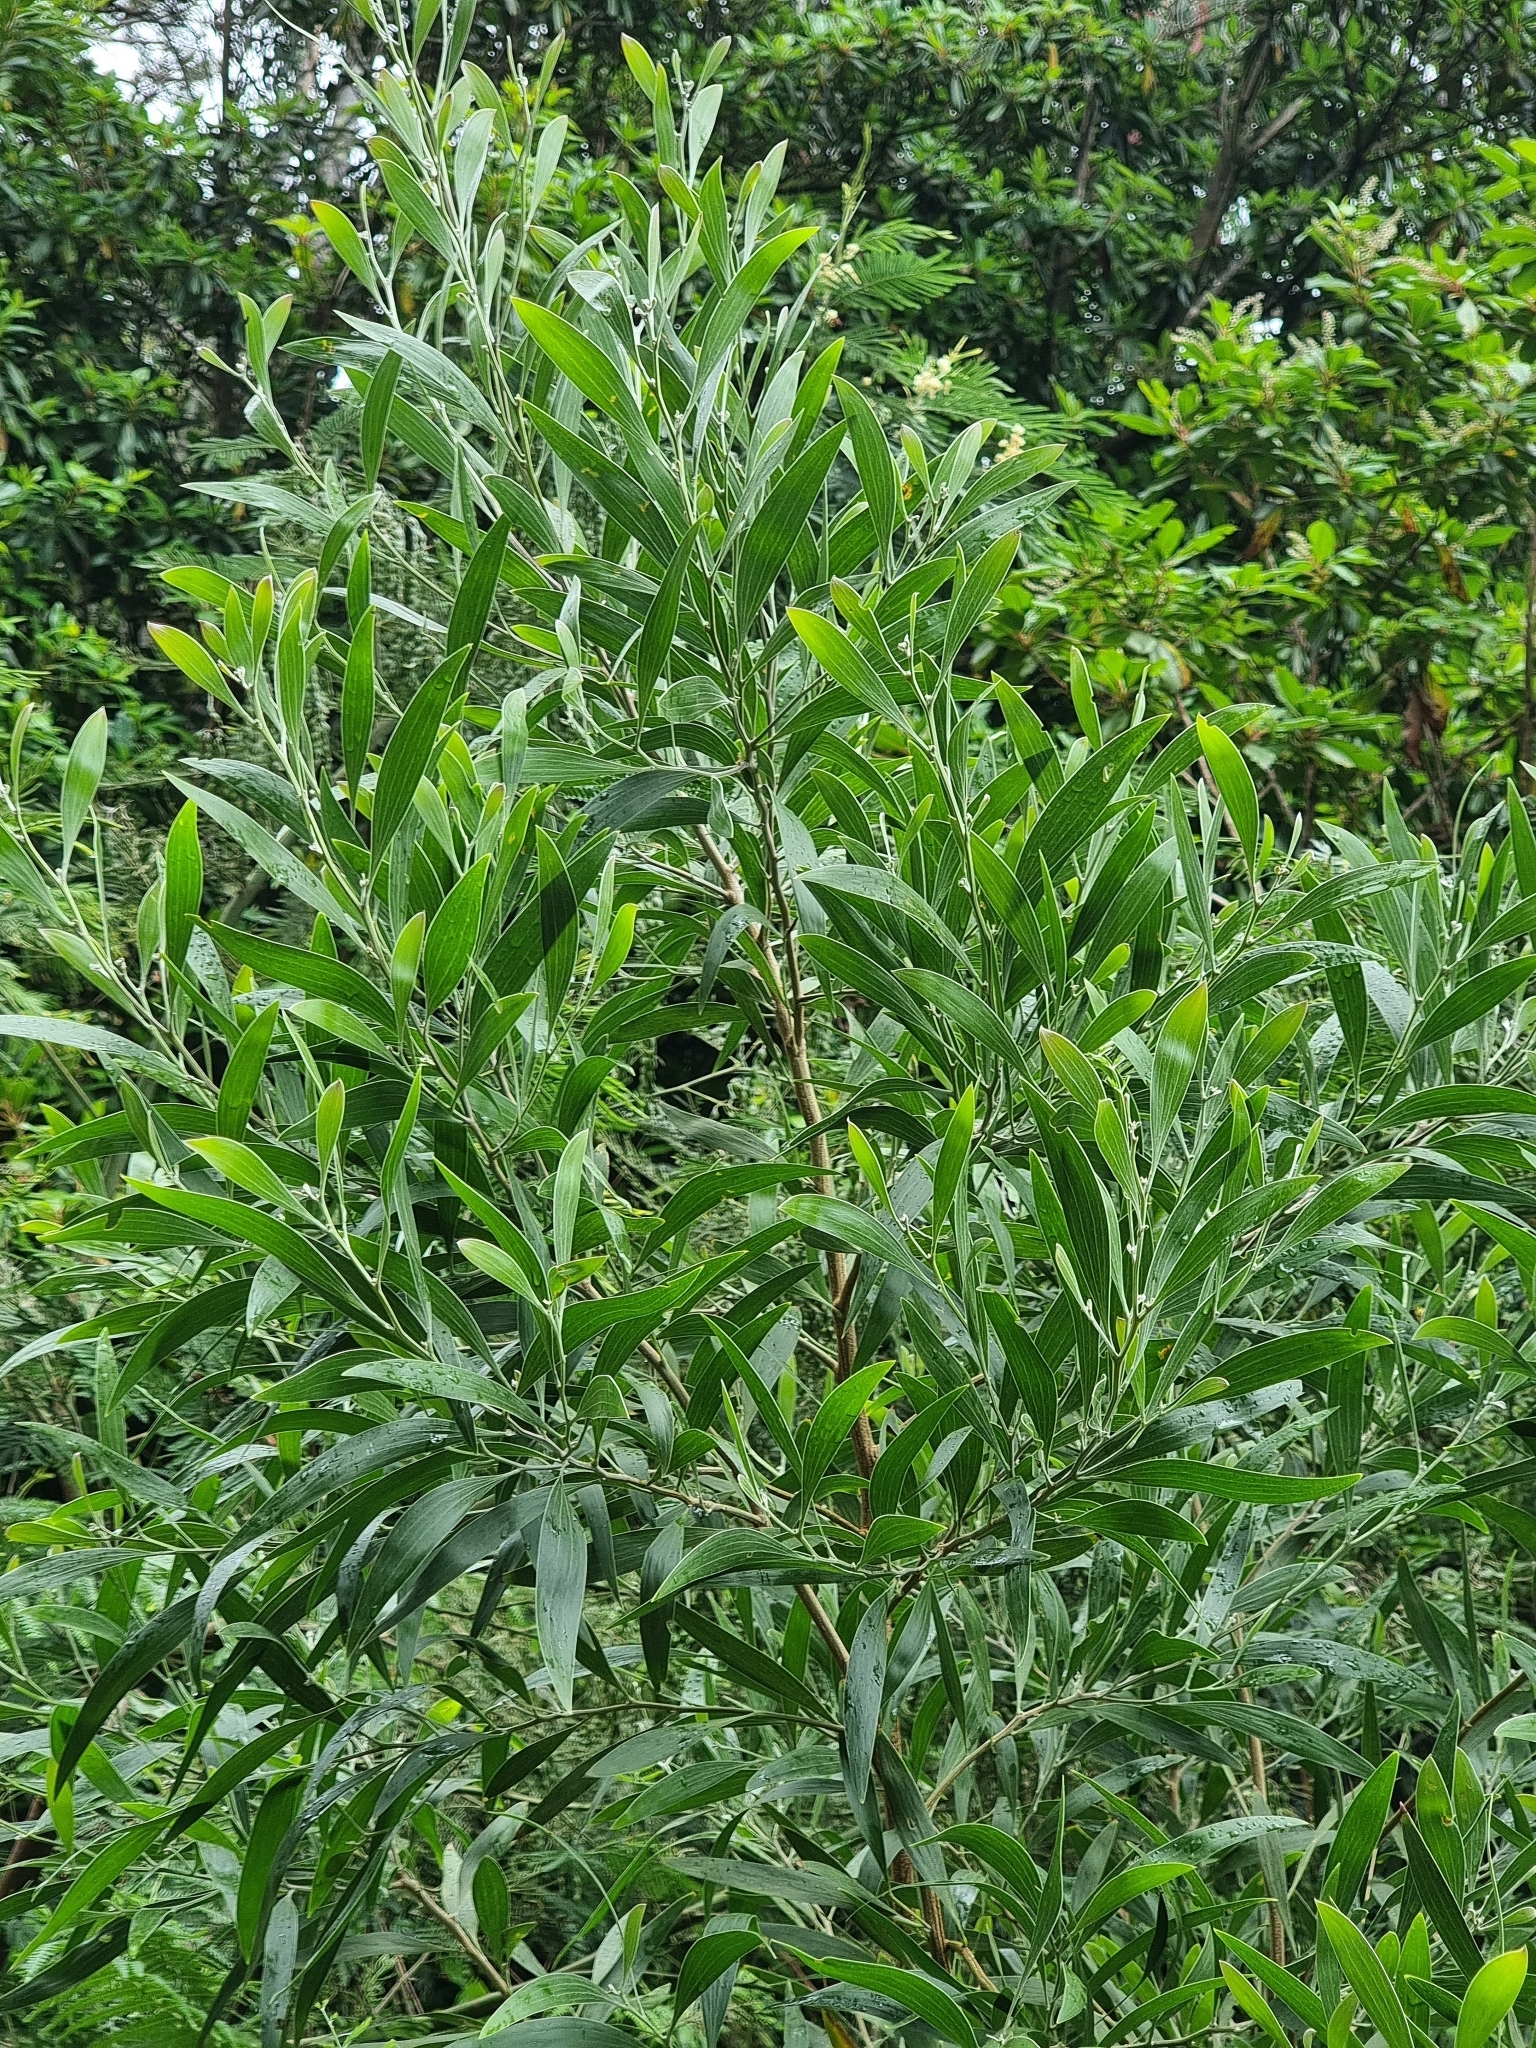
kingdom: Plantae
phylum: Tracheophyta
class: Magnoliopsida
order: Fabales
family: Fabaceae
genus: Acacia
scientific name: Acacia melanoxylon
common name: Blackwood
